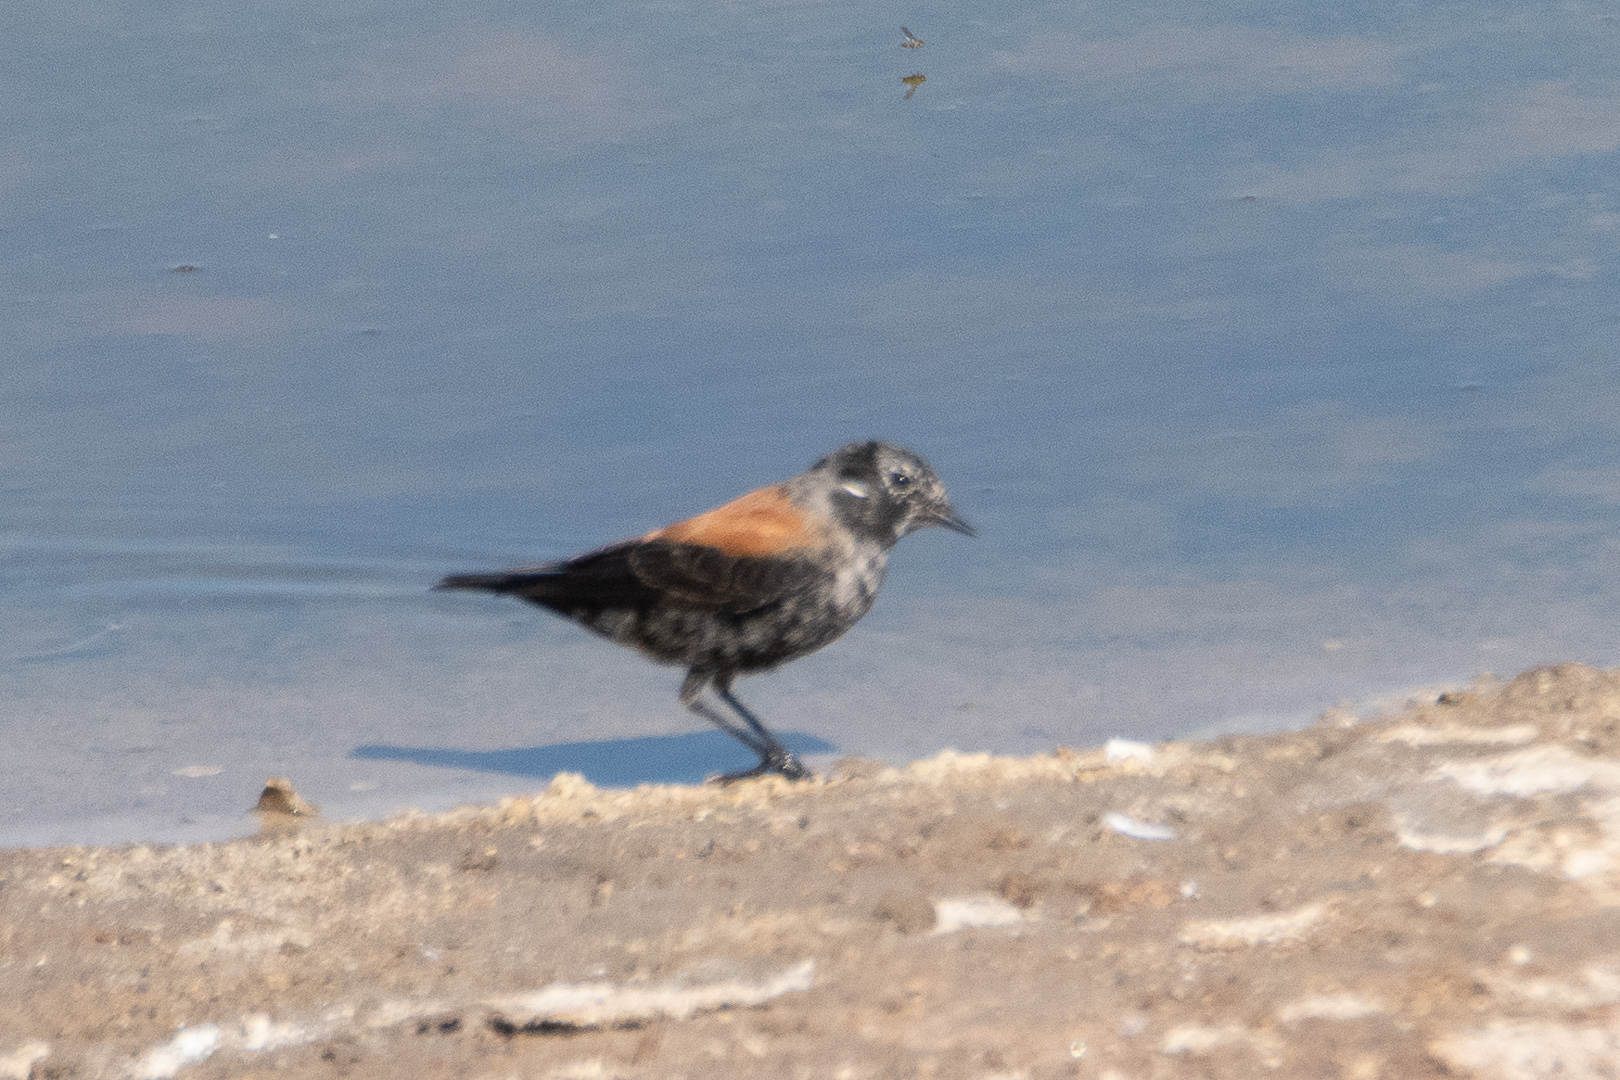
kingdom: Animalia
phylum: Chordata
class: Aves
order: Passeriformes
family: Tyrannidae
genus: Lessonia
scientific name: Lessonia rufa
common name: Austral negrito
